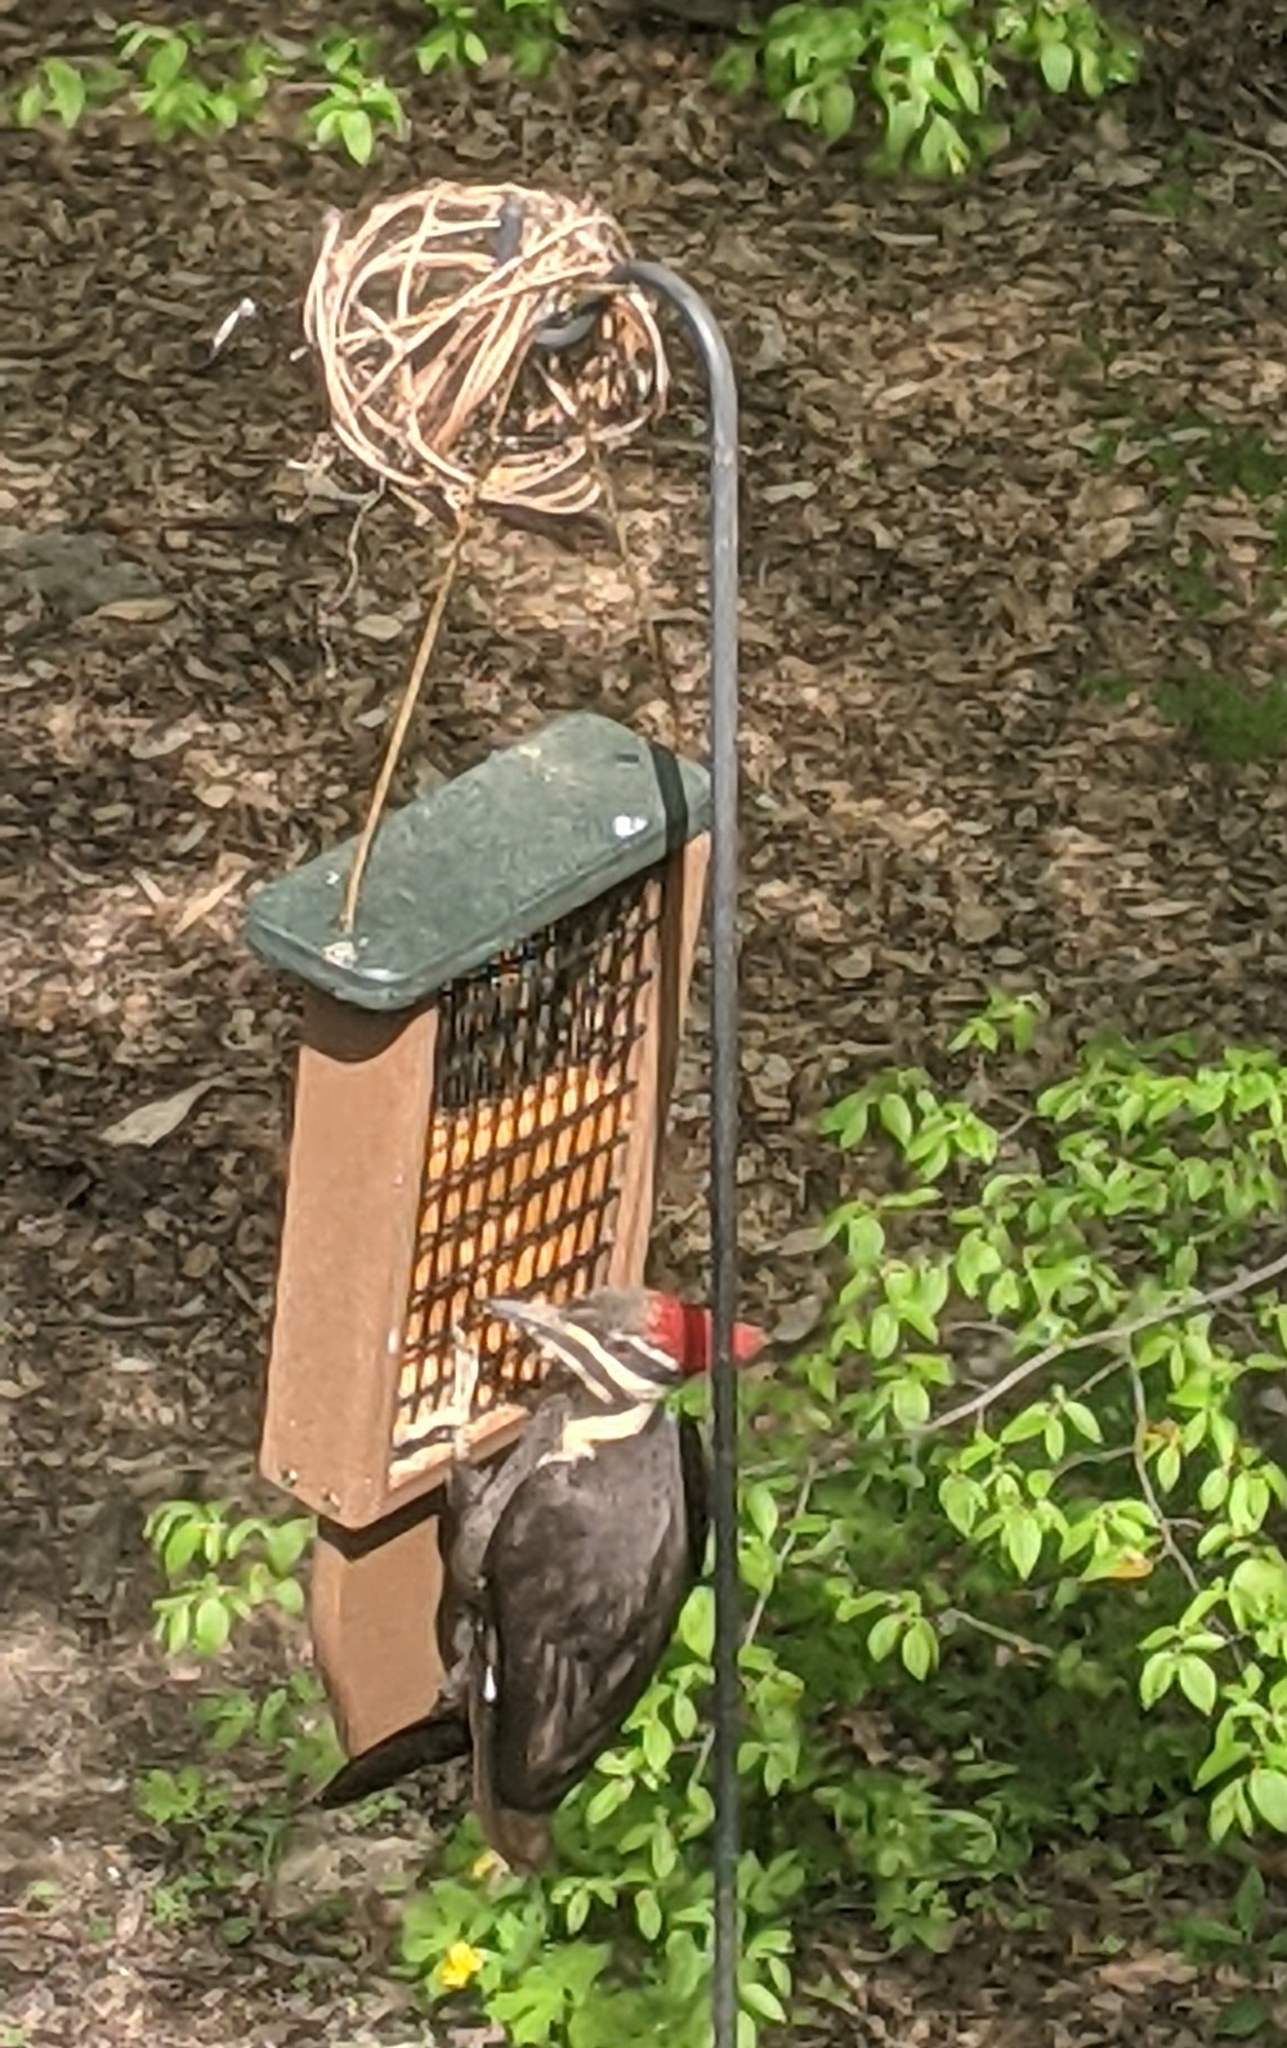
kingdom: Animalia
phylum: Chordata
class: Aves
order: Piciformes
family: Picidae
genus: Dryocopus
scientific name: Dryocopus pileatus
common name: Pileated woodpecker
